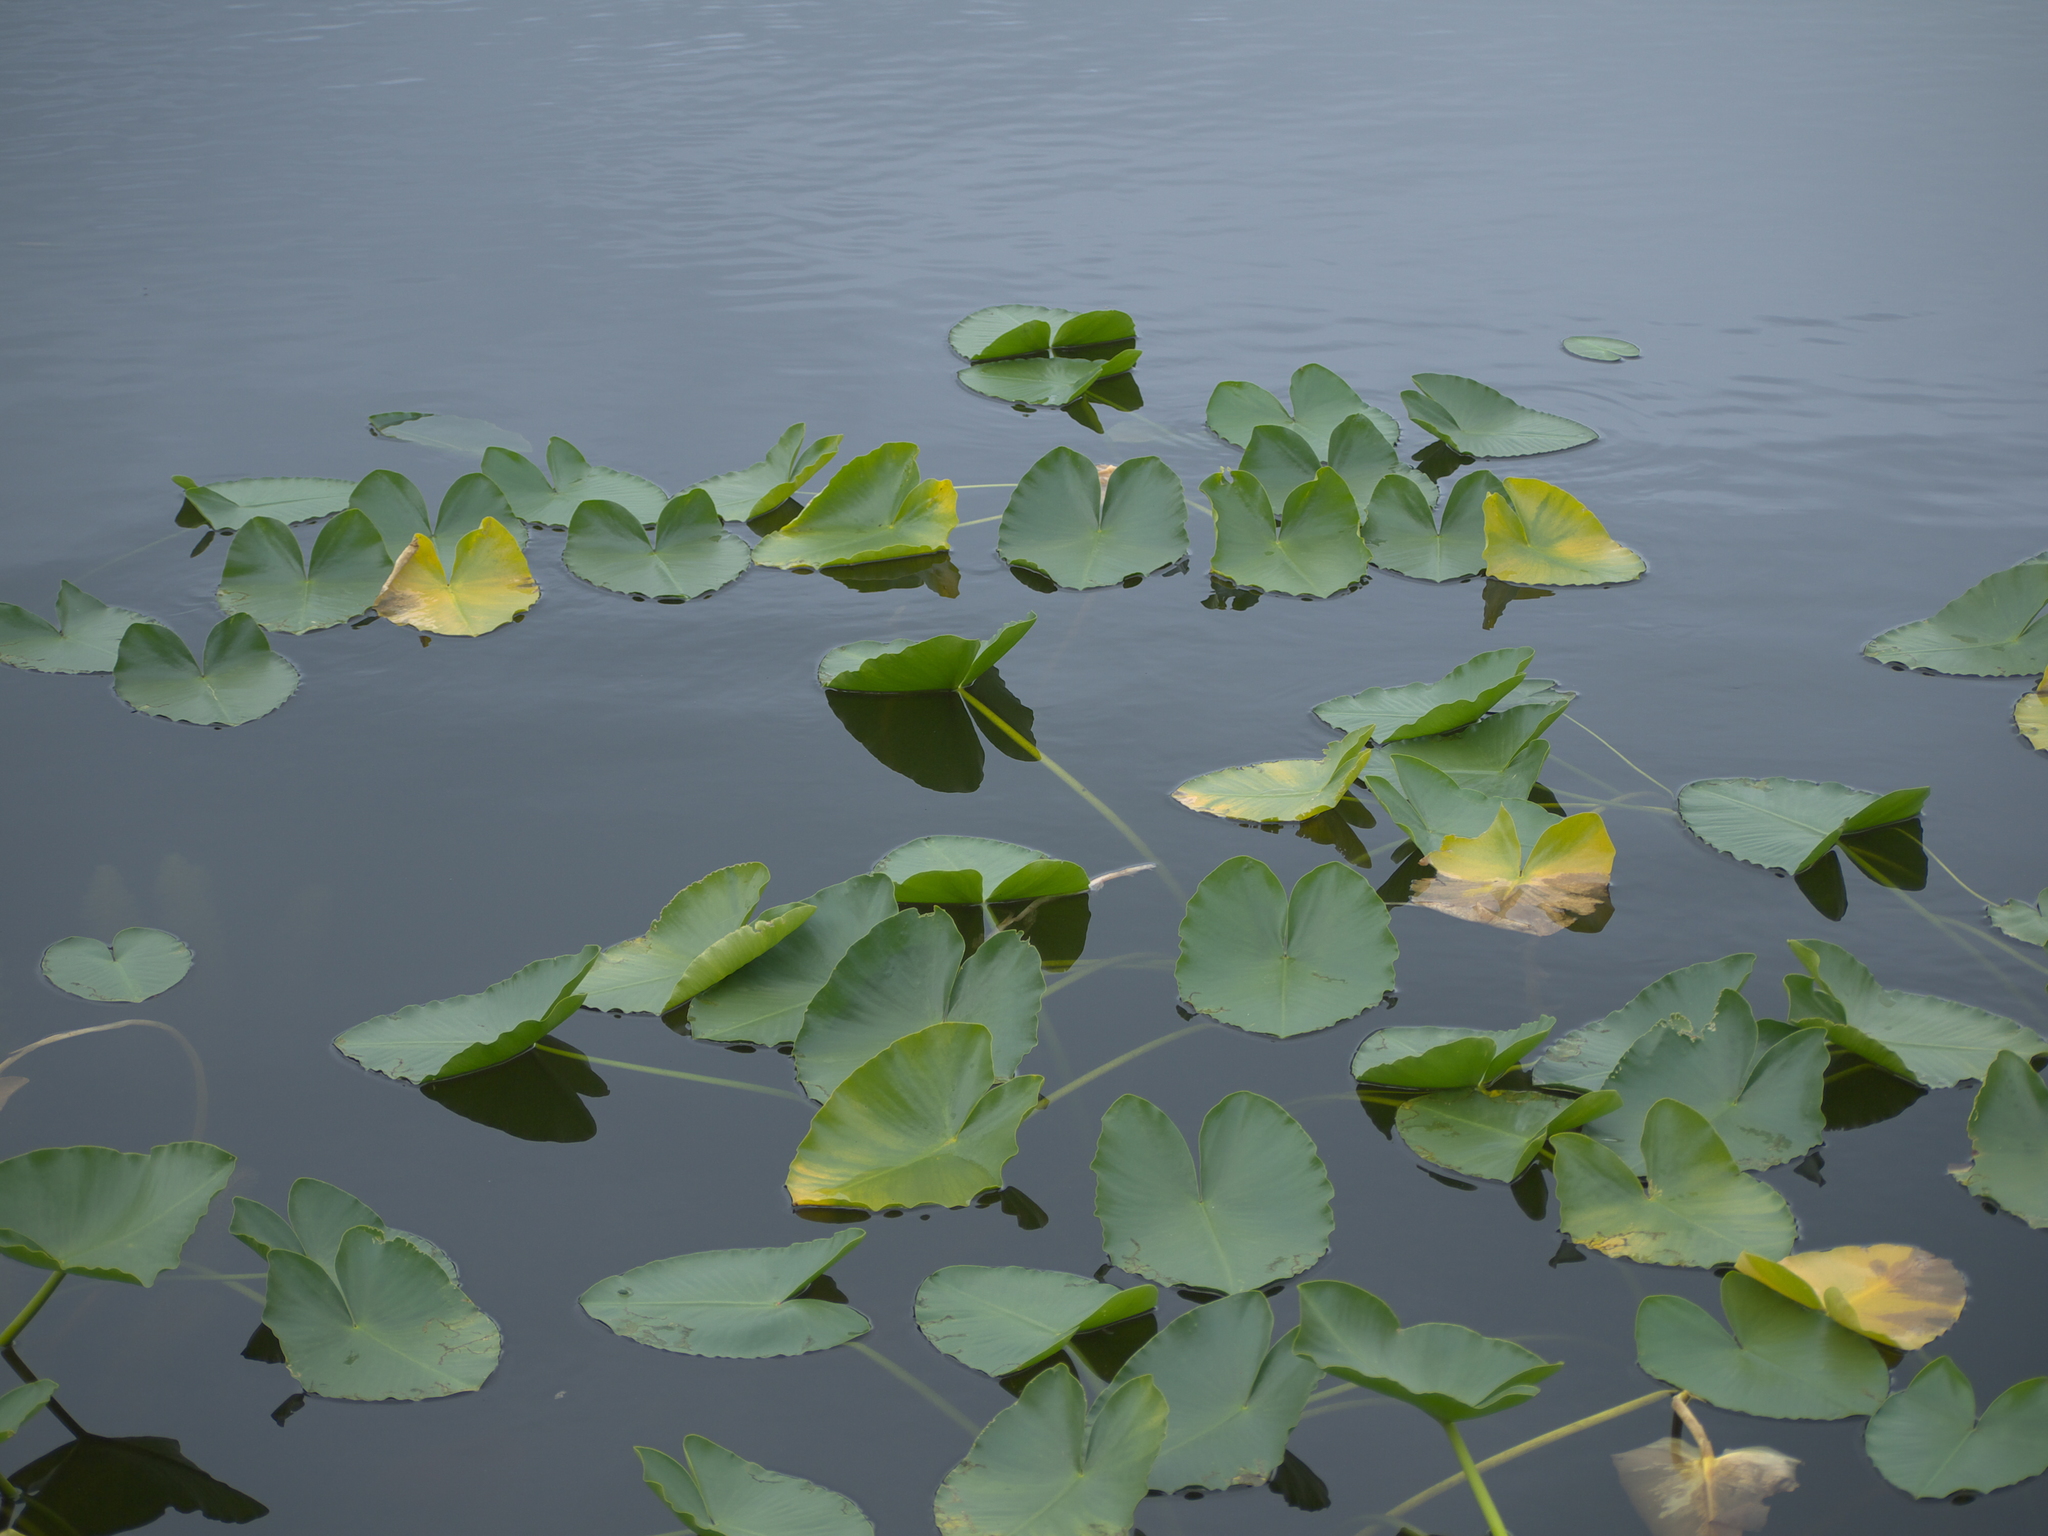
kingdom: Plantae
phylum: Tracheophyta
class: Magnoliopsida
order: Nymphaeales
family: Nymphaeaceae
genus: Nuphar
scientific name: Nuphar polysepala
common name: Rocky mountain cow-lily
